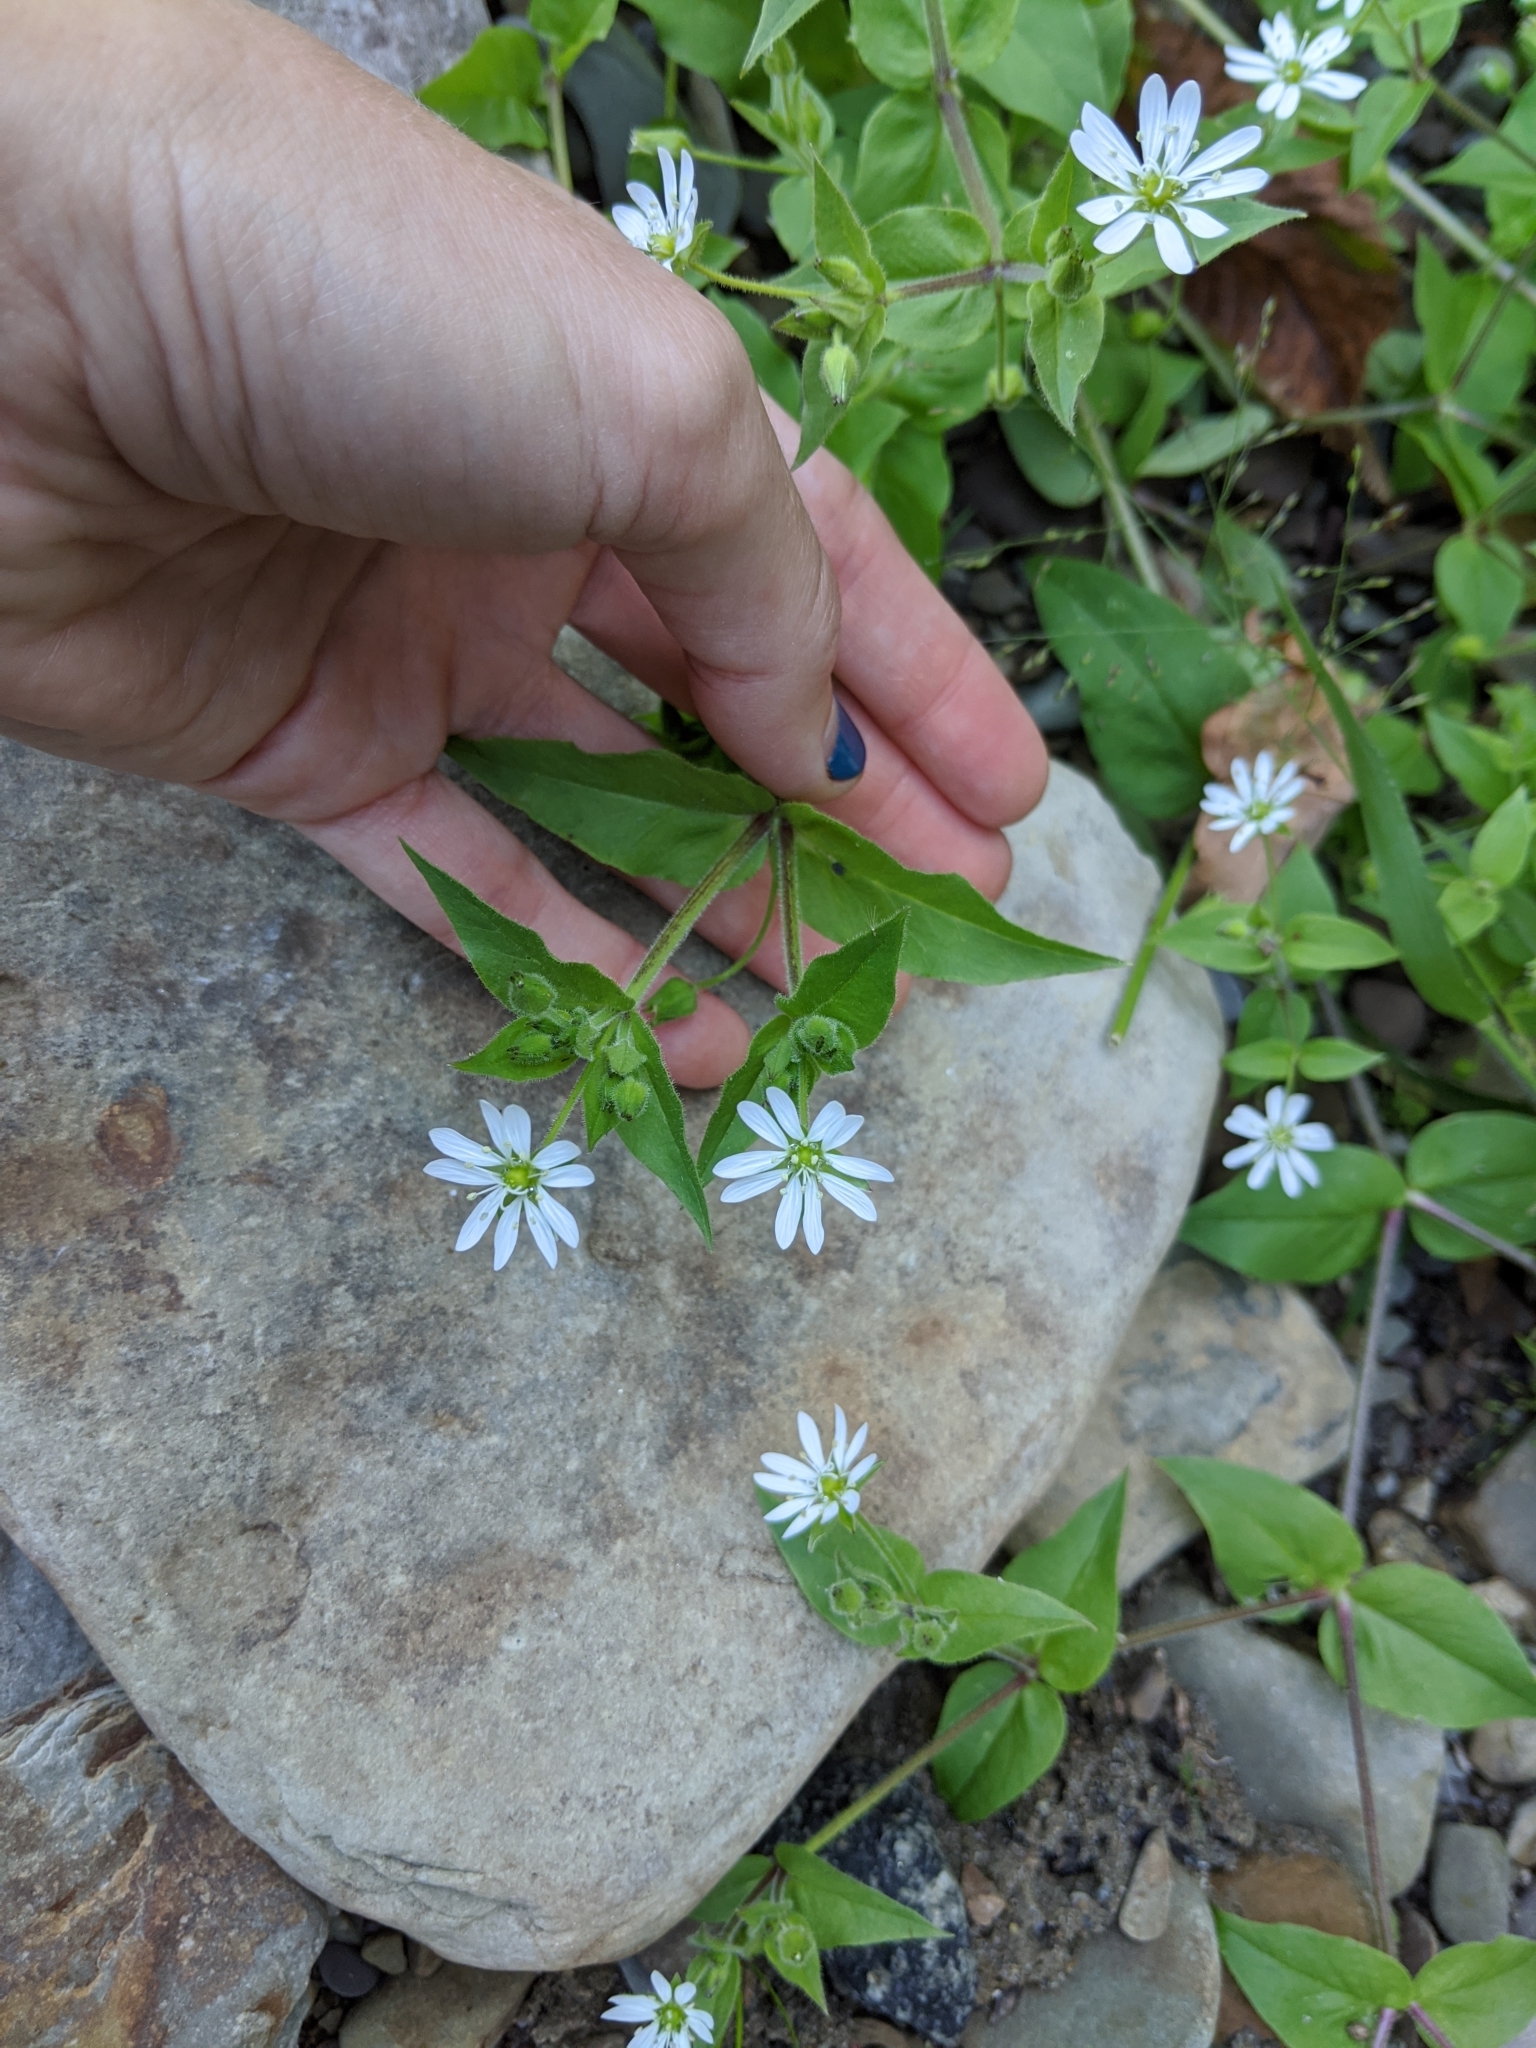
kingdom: Plantae
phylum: Tracheophyta
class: Magnoliopsida
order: Caryophyllales
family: Caryophyllaceae
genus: Stellaria
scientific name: Stellaria aquatica
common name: Water chickweed
